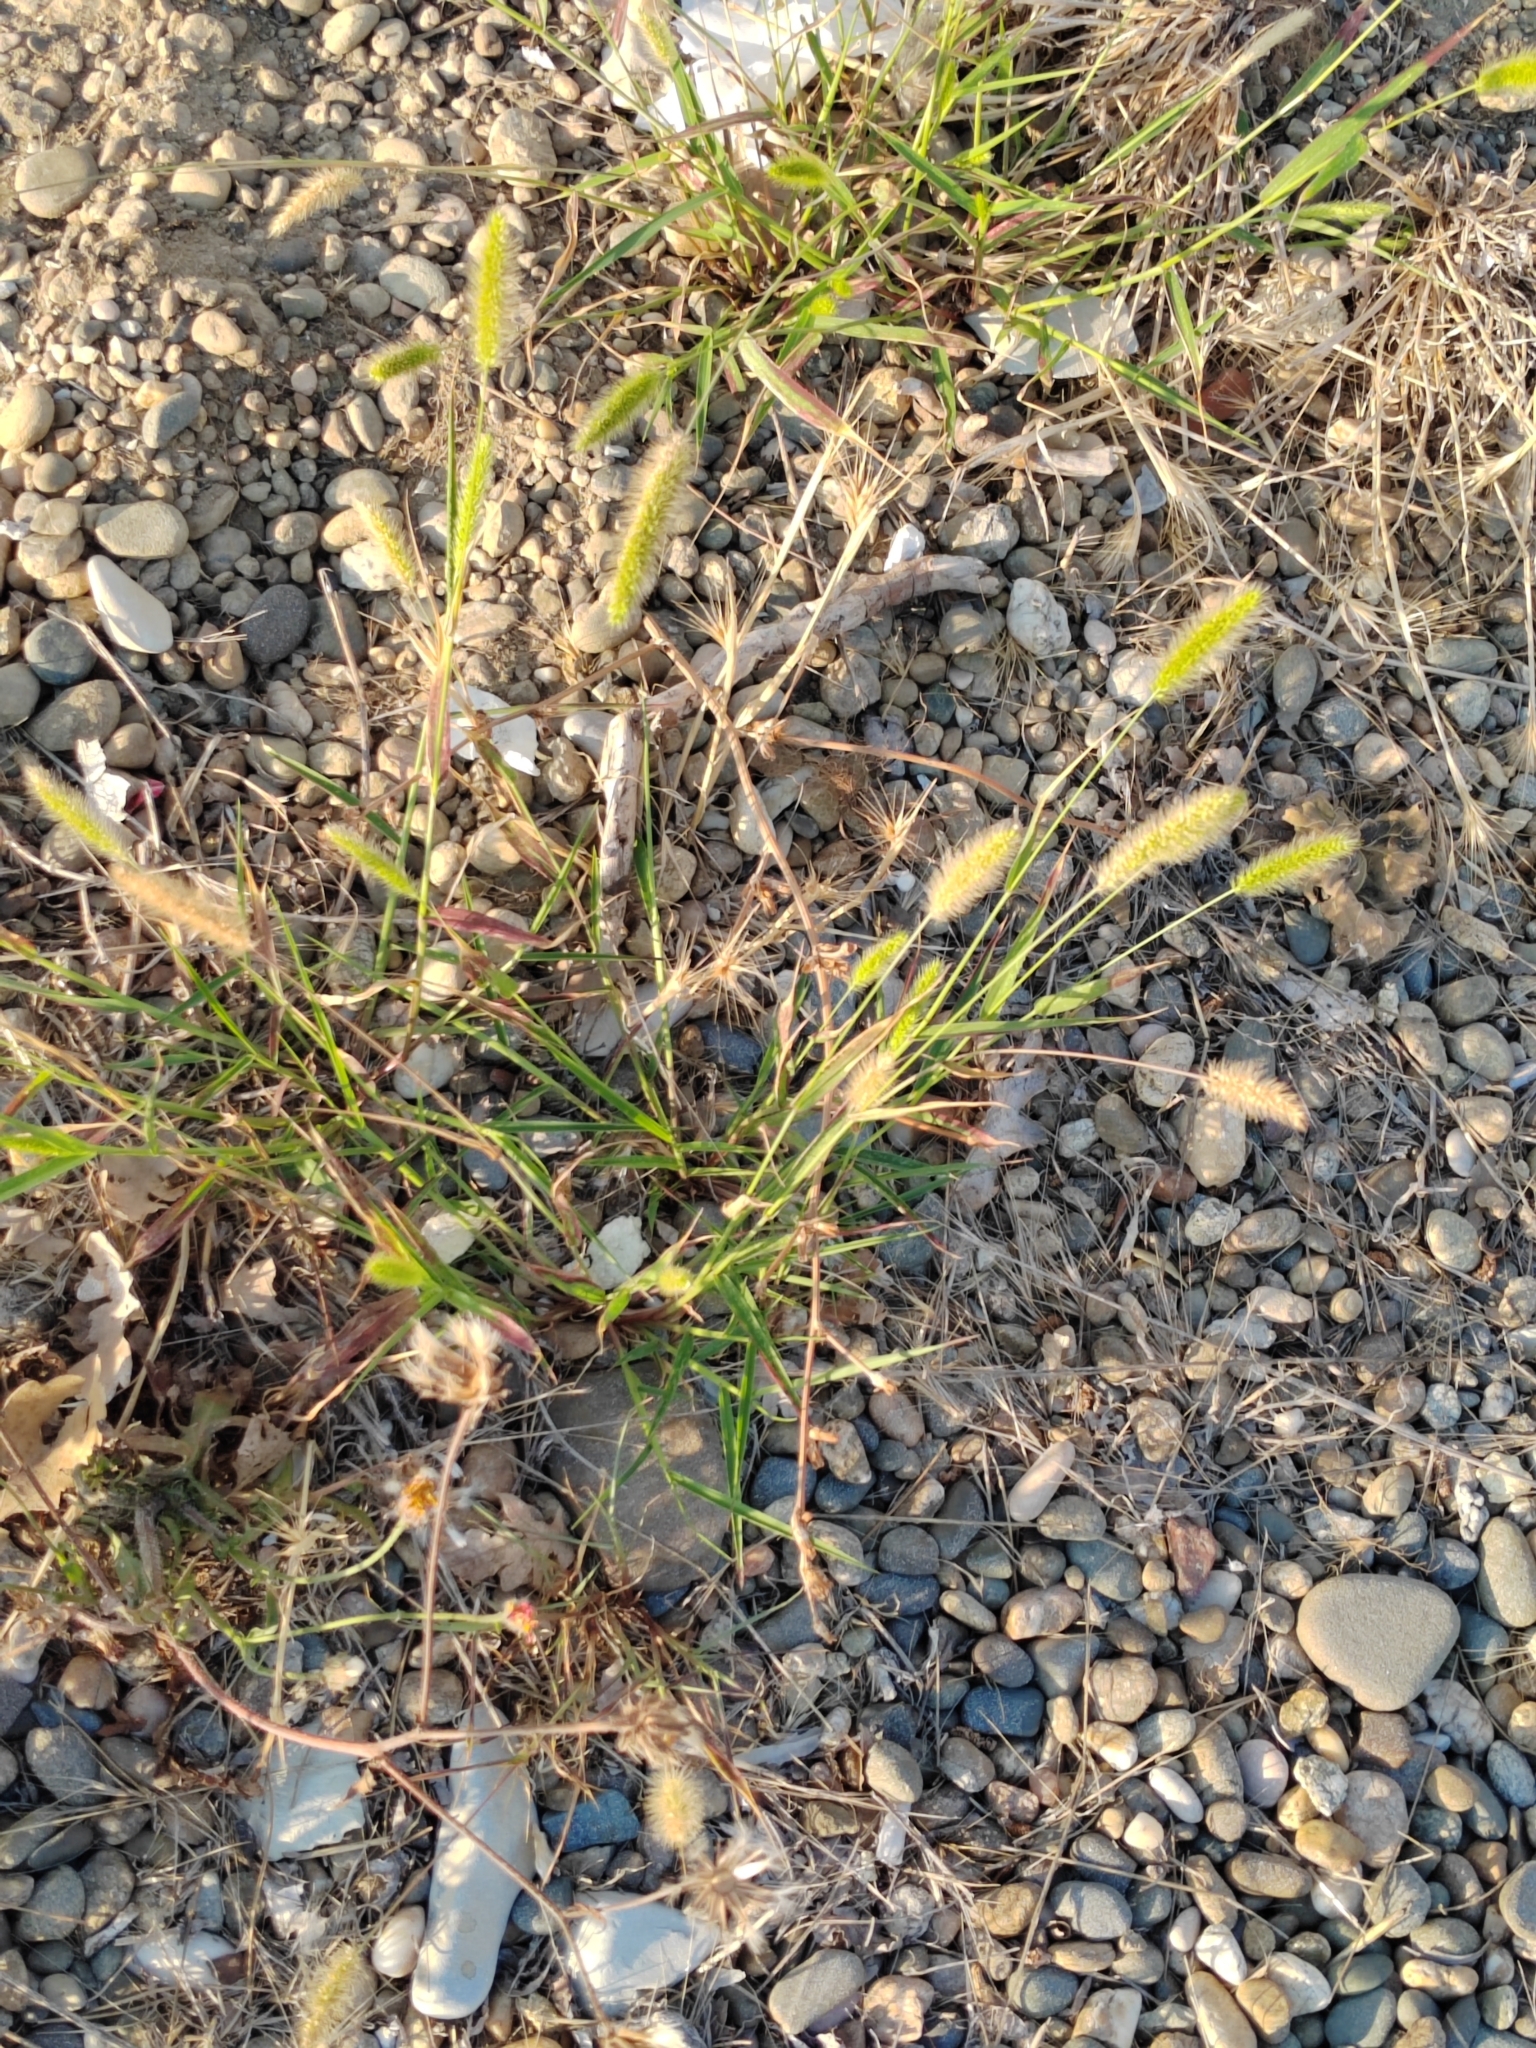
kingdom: Plantae
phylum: Tracheophyta
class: Liliopsida
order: Poales
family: Poaceae
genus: Setaria
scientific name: Setaria viridis
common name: Green bristlegrass
